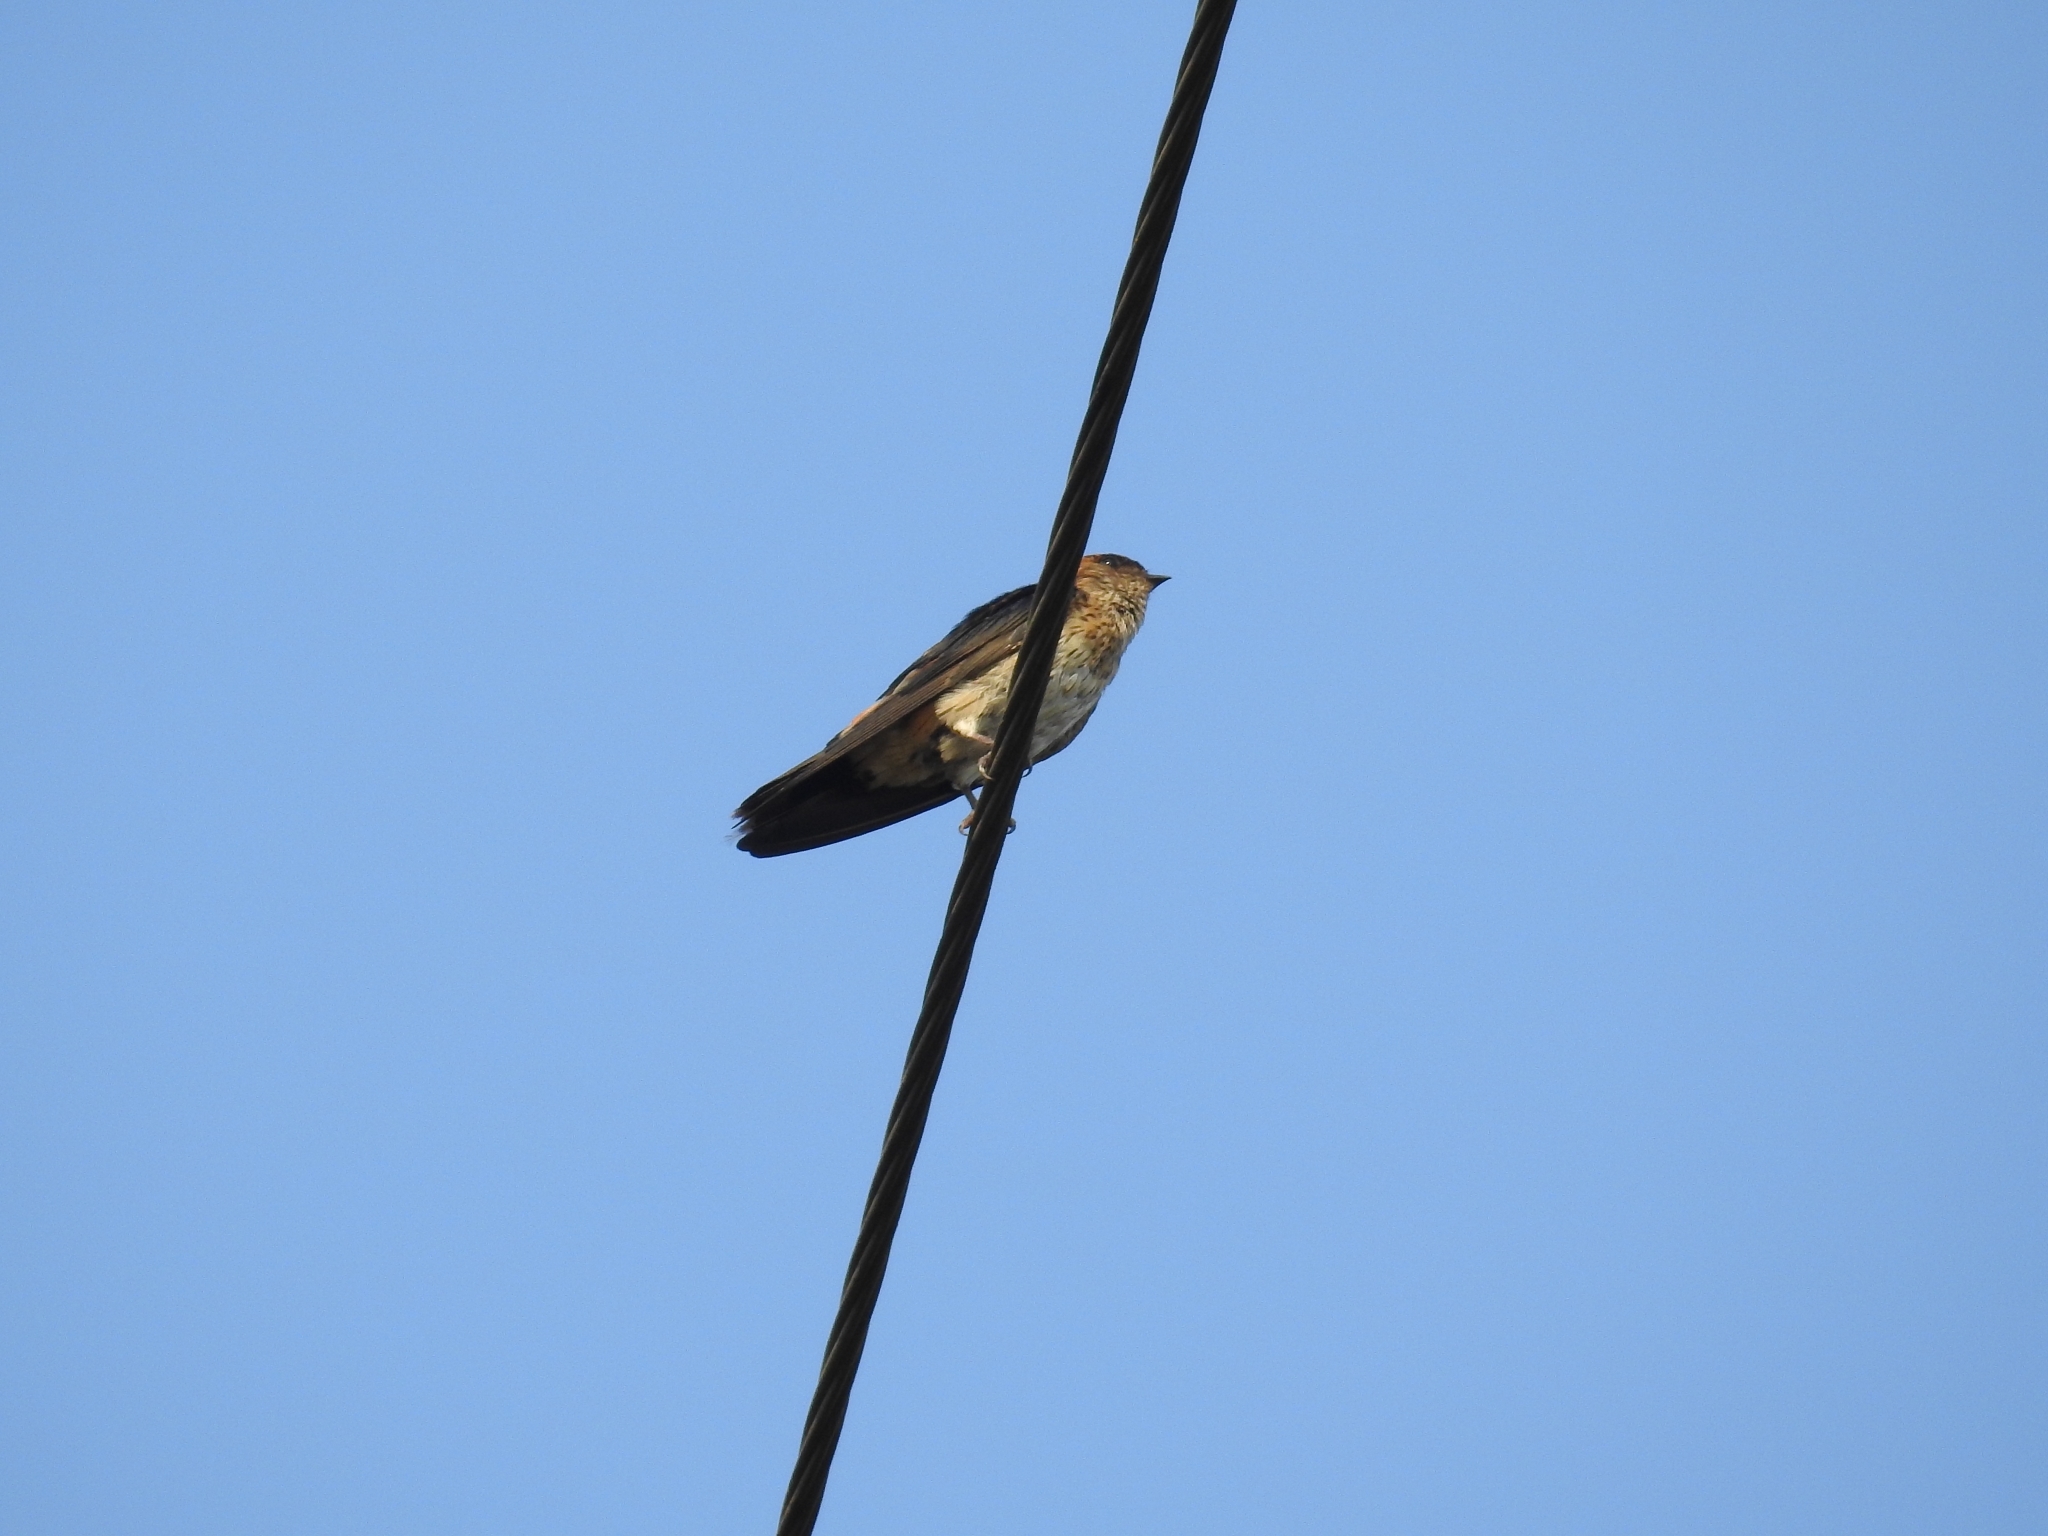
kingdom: Animalia
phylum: Chordata
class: Aves
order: Passeriformes
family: Hirundinidae
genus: Cecropis
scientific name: Cecropis daurica
